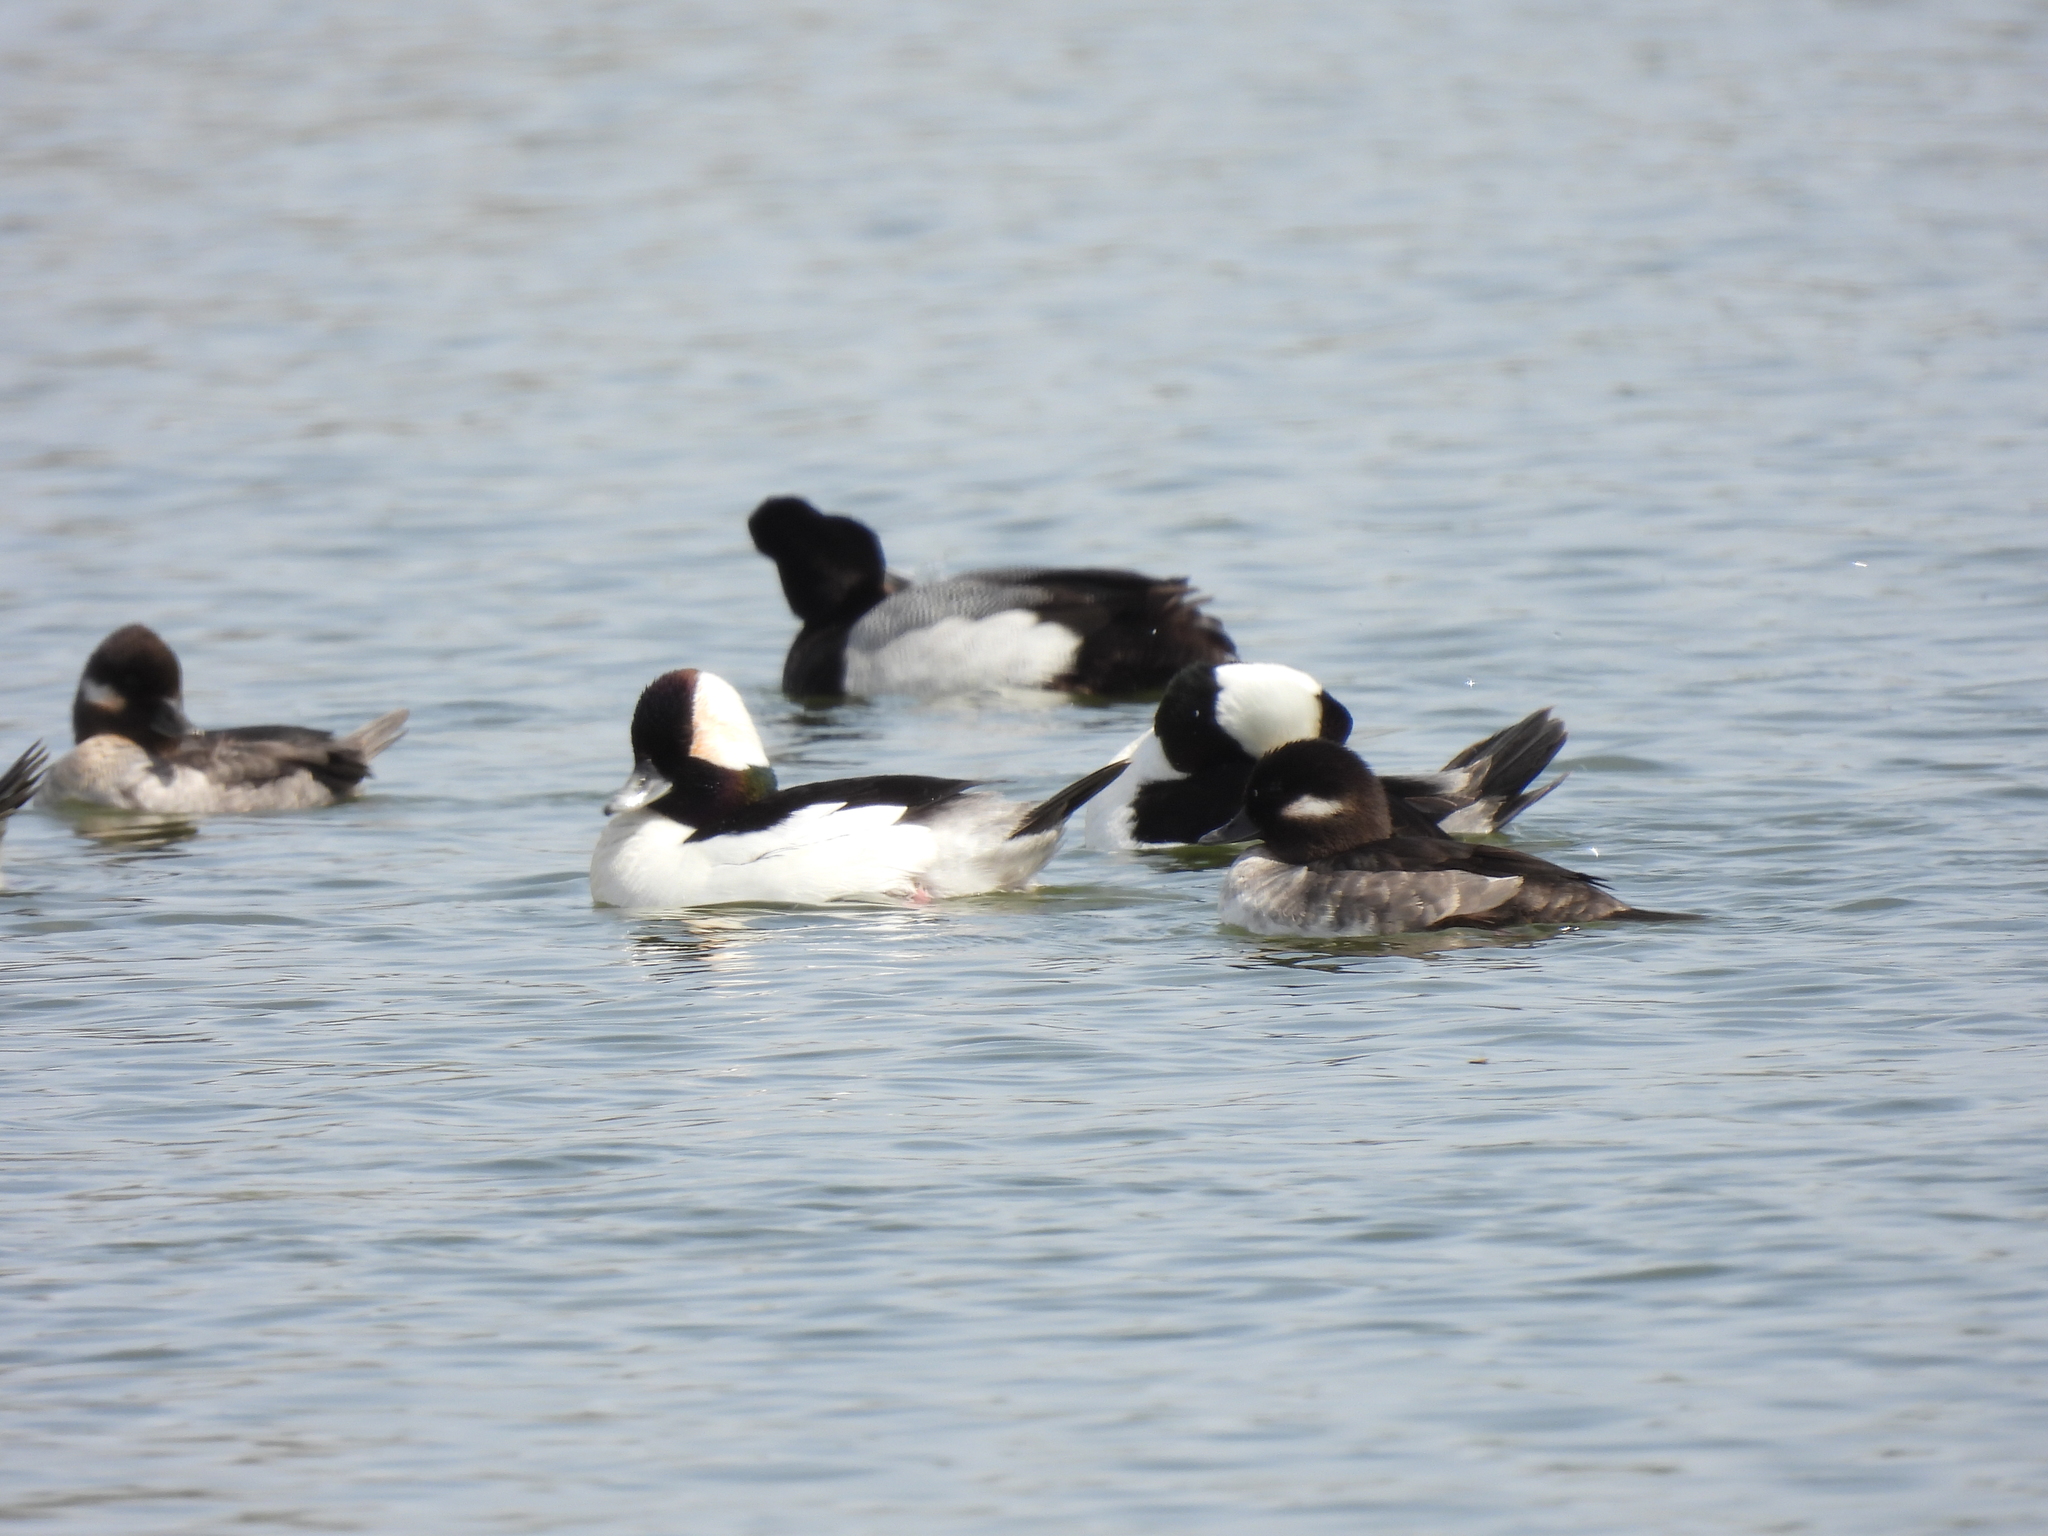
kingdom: Animalia
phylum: Chordata
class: Aves
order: Anseriformes
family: Anatidae
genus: Bucephala
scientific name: Bucephala albeola
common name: Bufflehead
